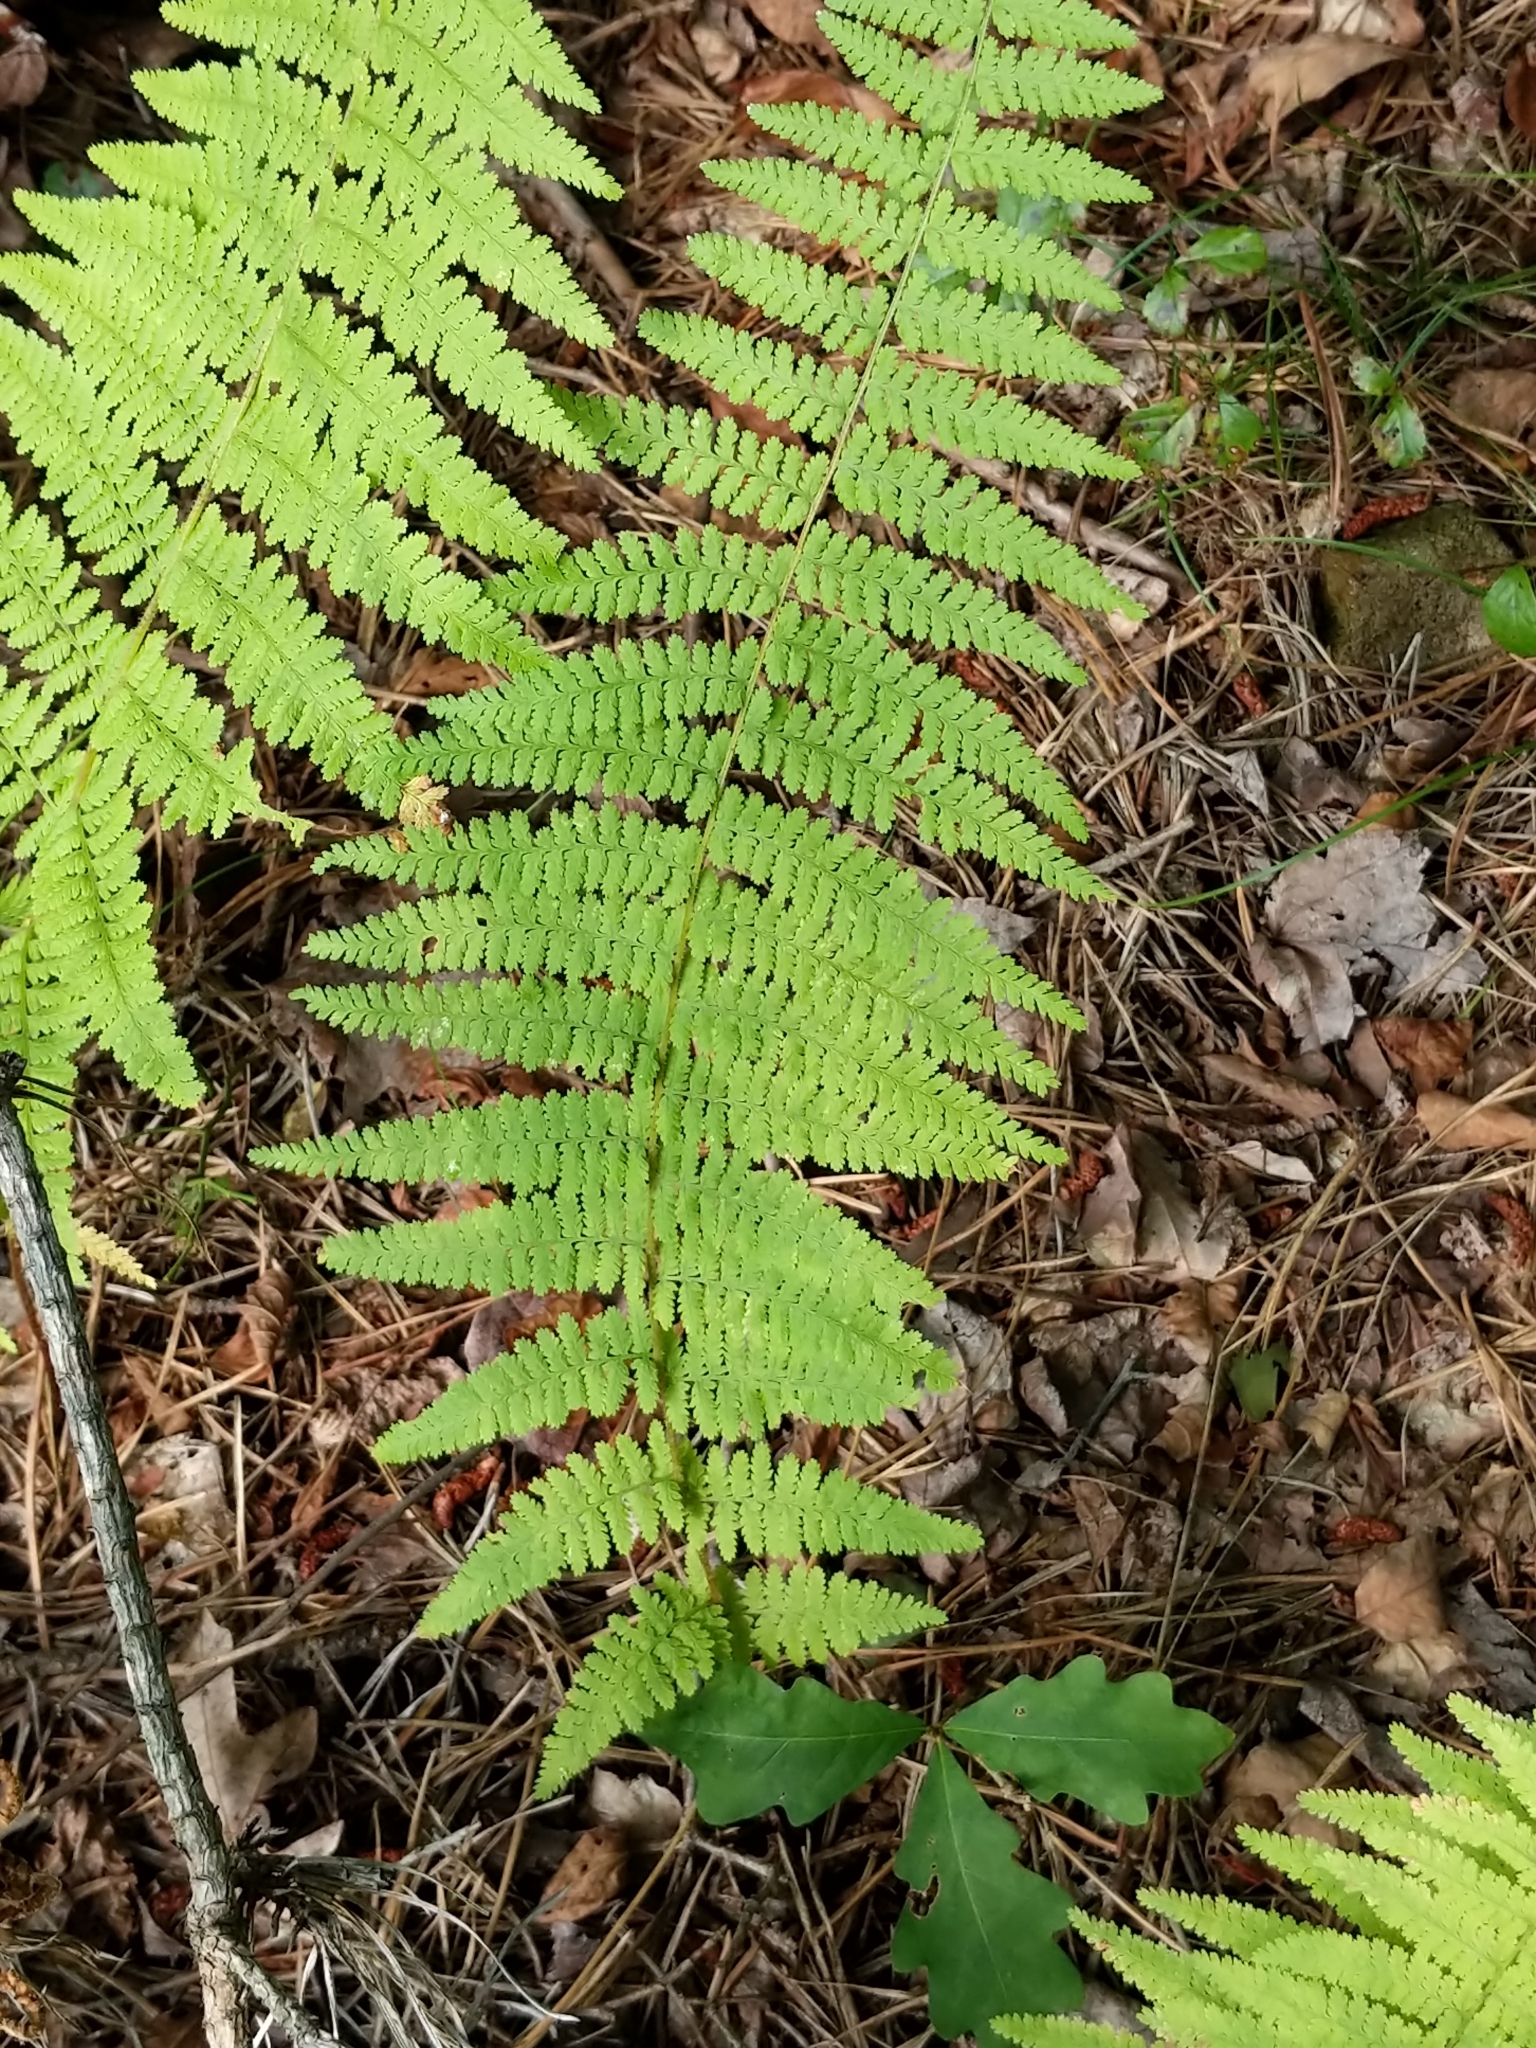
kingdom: Plantae
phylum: Tracheophyta
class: Polypodiopsida
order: Polypodiales
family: Dennstaedtiaceae
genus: Sitobolium
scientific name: Sitobolium punctilobum
